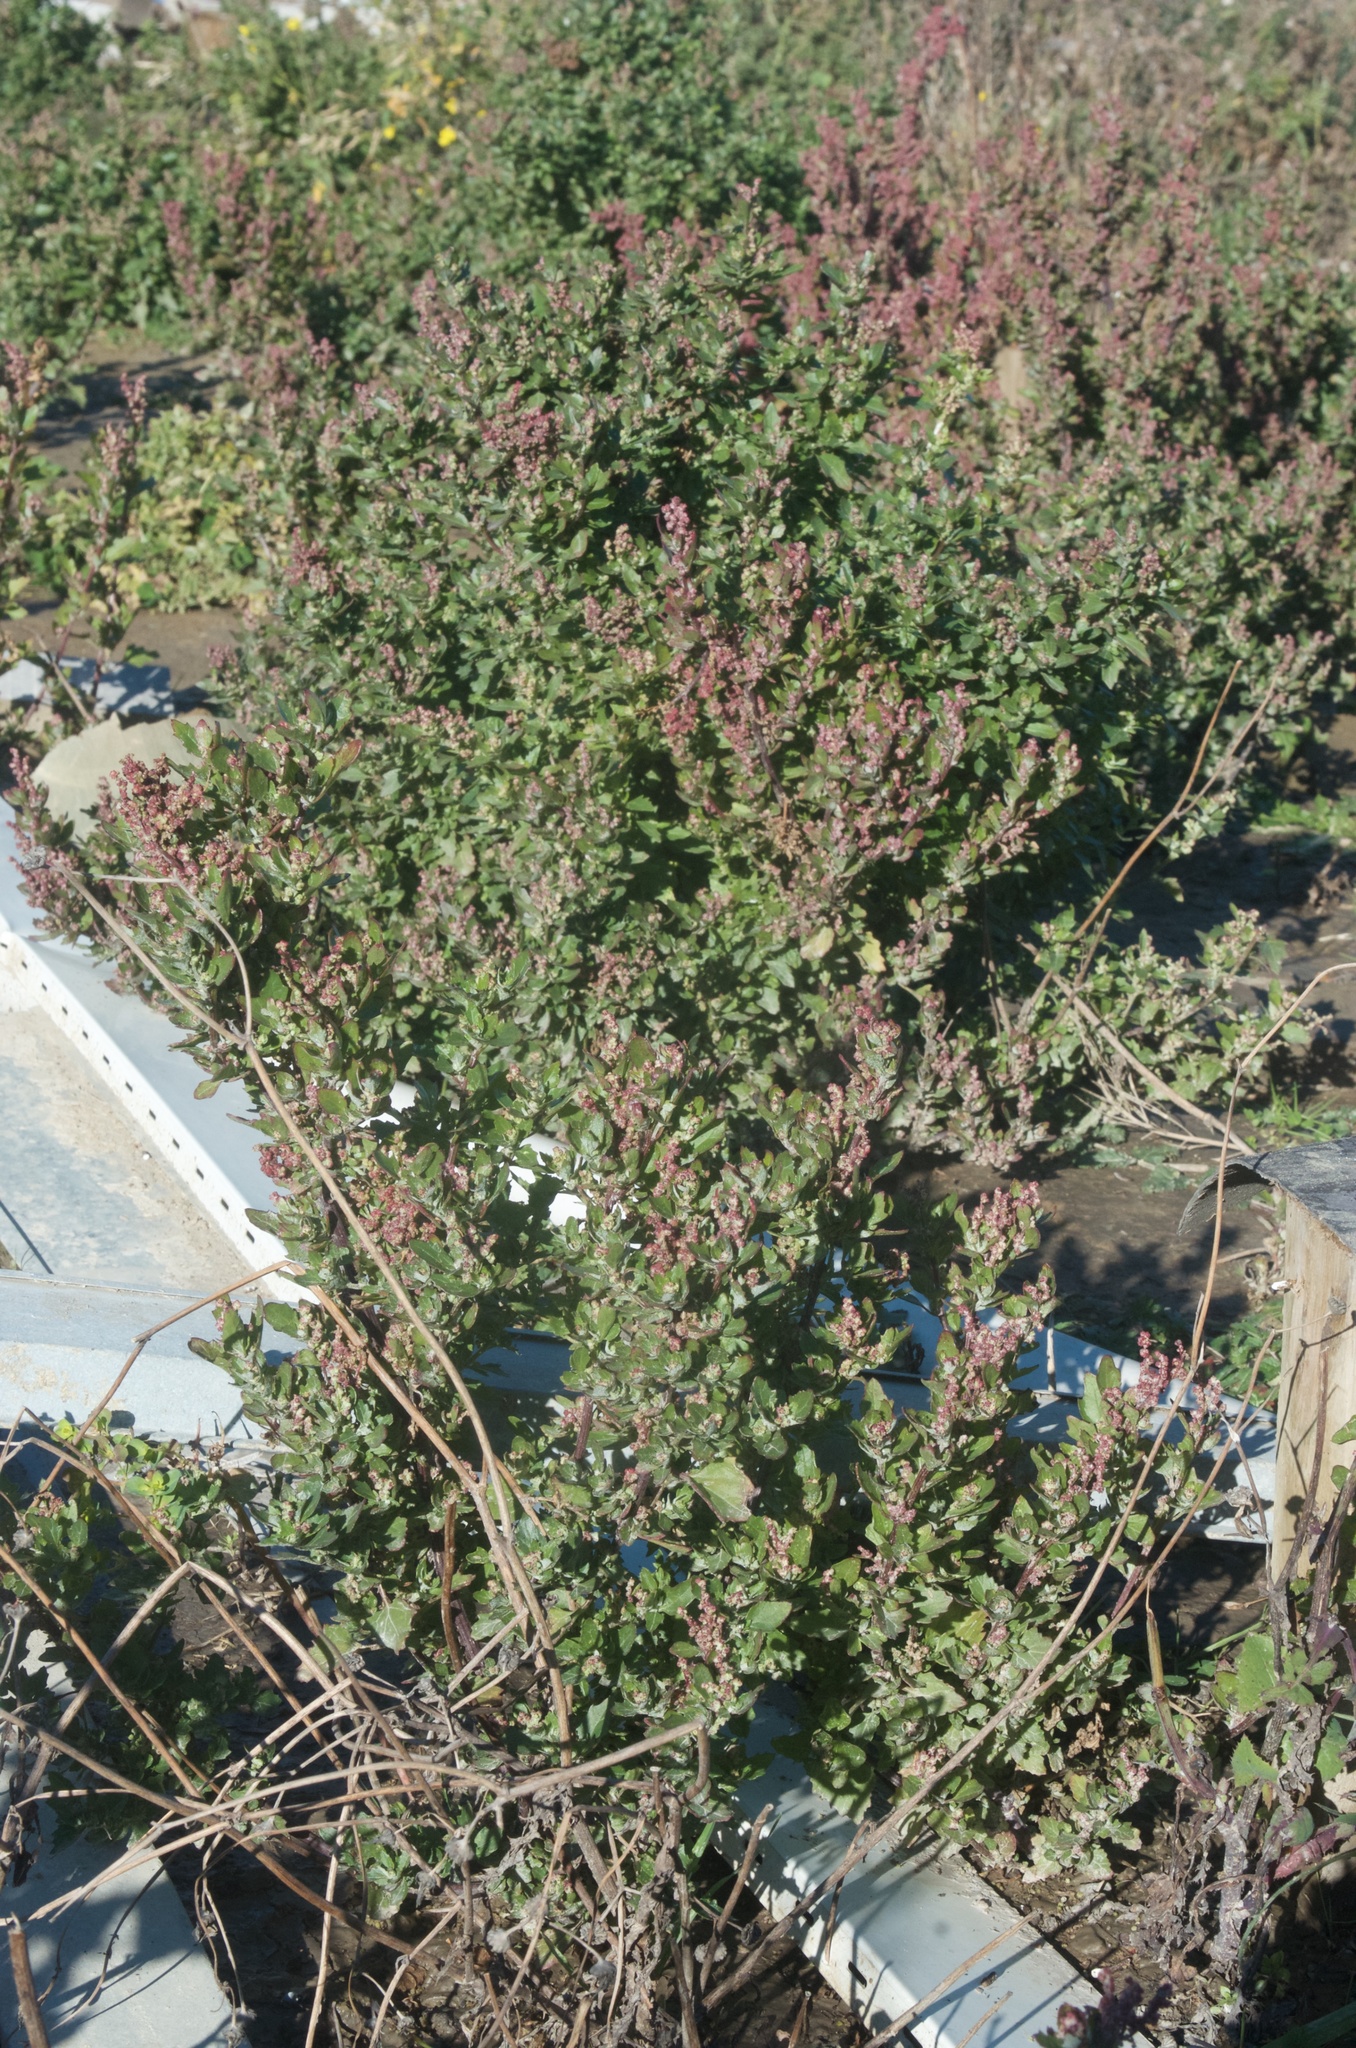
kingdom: Plantae
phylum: Tracheophyta
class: Magnoliopsida
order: Caryophyllales
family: Amaranthaceae
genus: Chenopodiastrum
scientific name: Chenopodiastrum murale
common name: Sowbane
